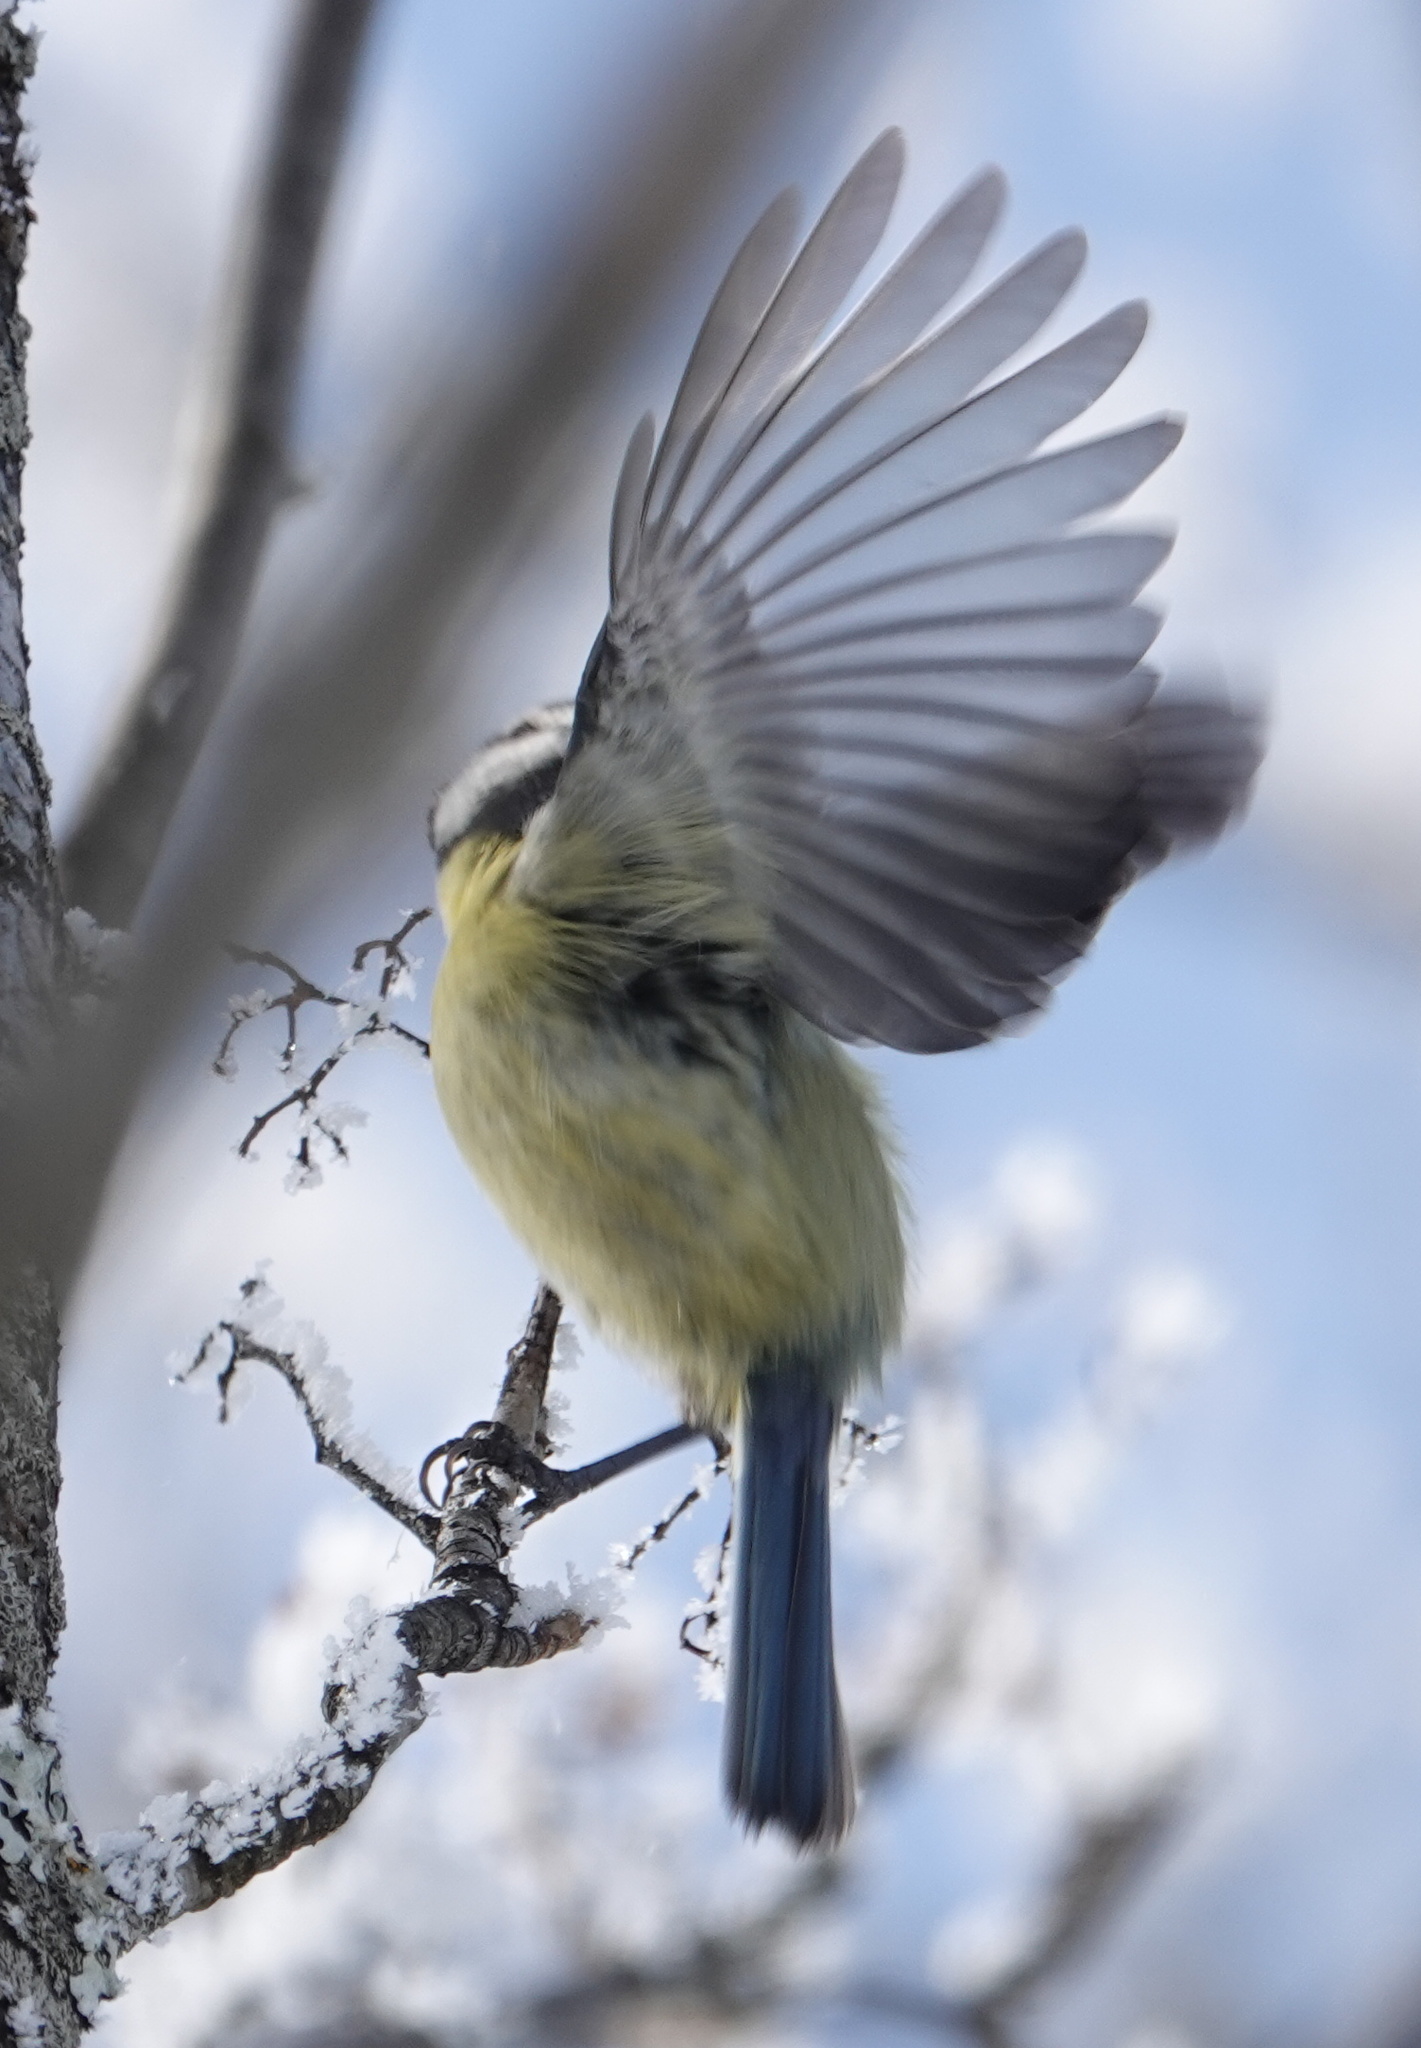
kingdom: Animalia
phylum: Chordata
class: Aves
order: Passeriformes
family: Paridae
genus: Cyanistes
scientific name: Cyanistes caeruleus
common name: Eurasian blue tit
